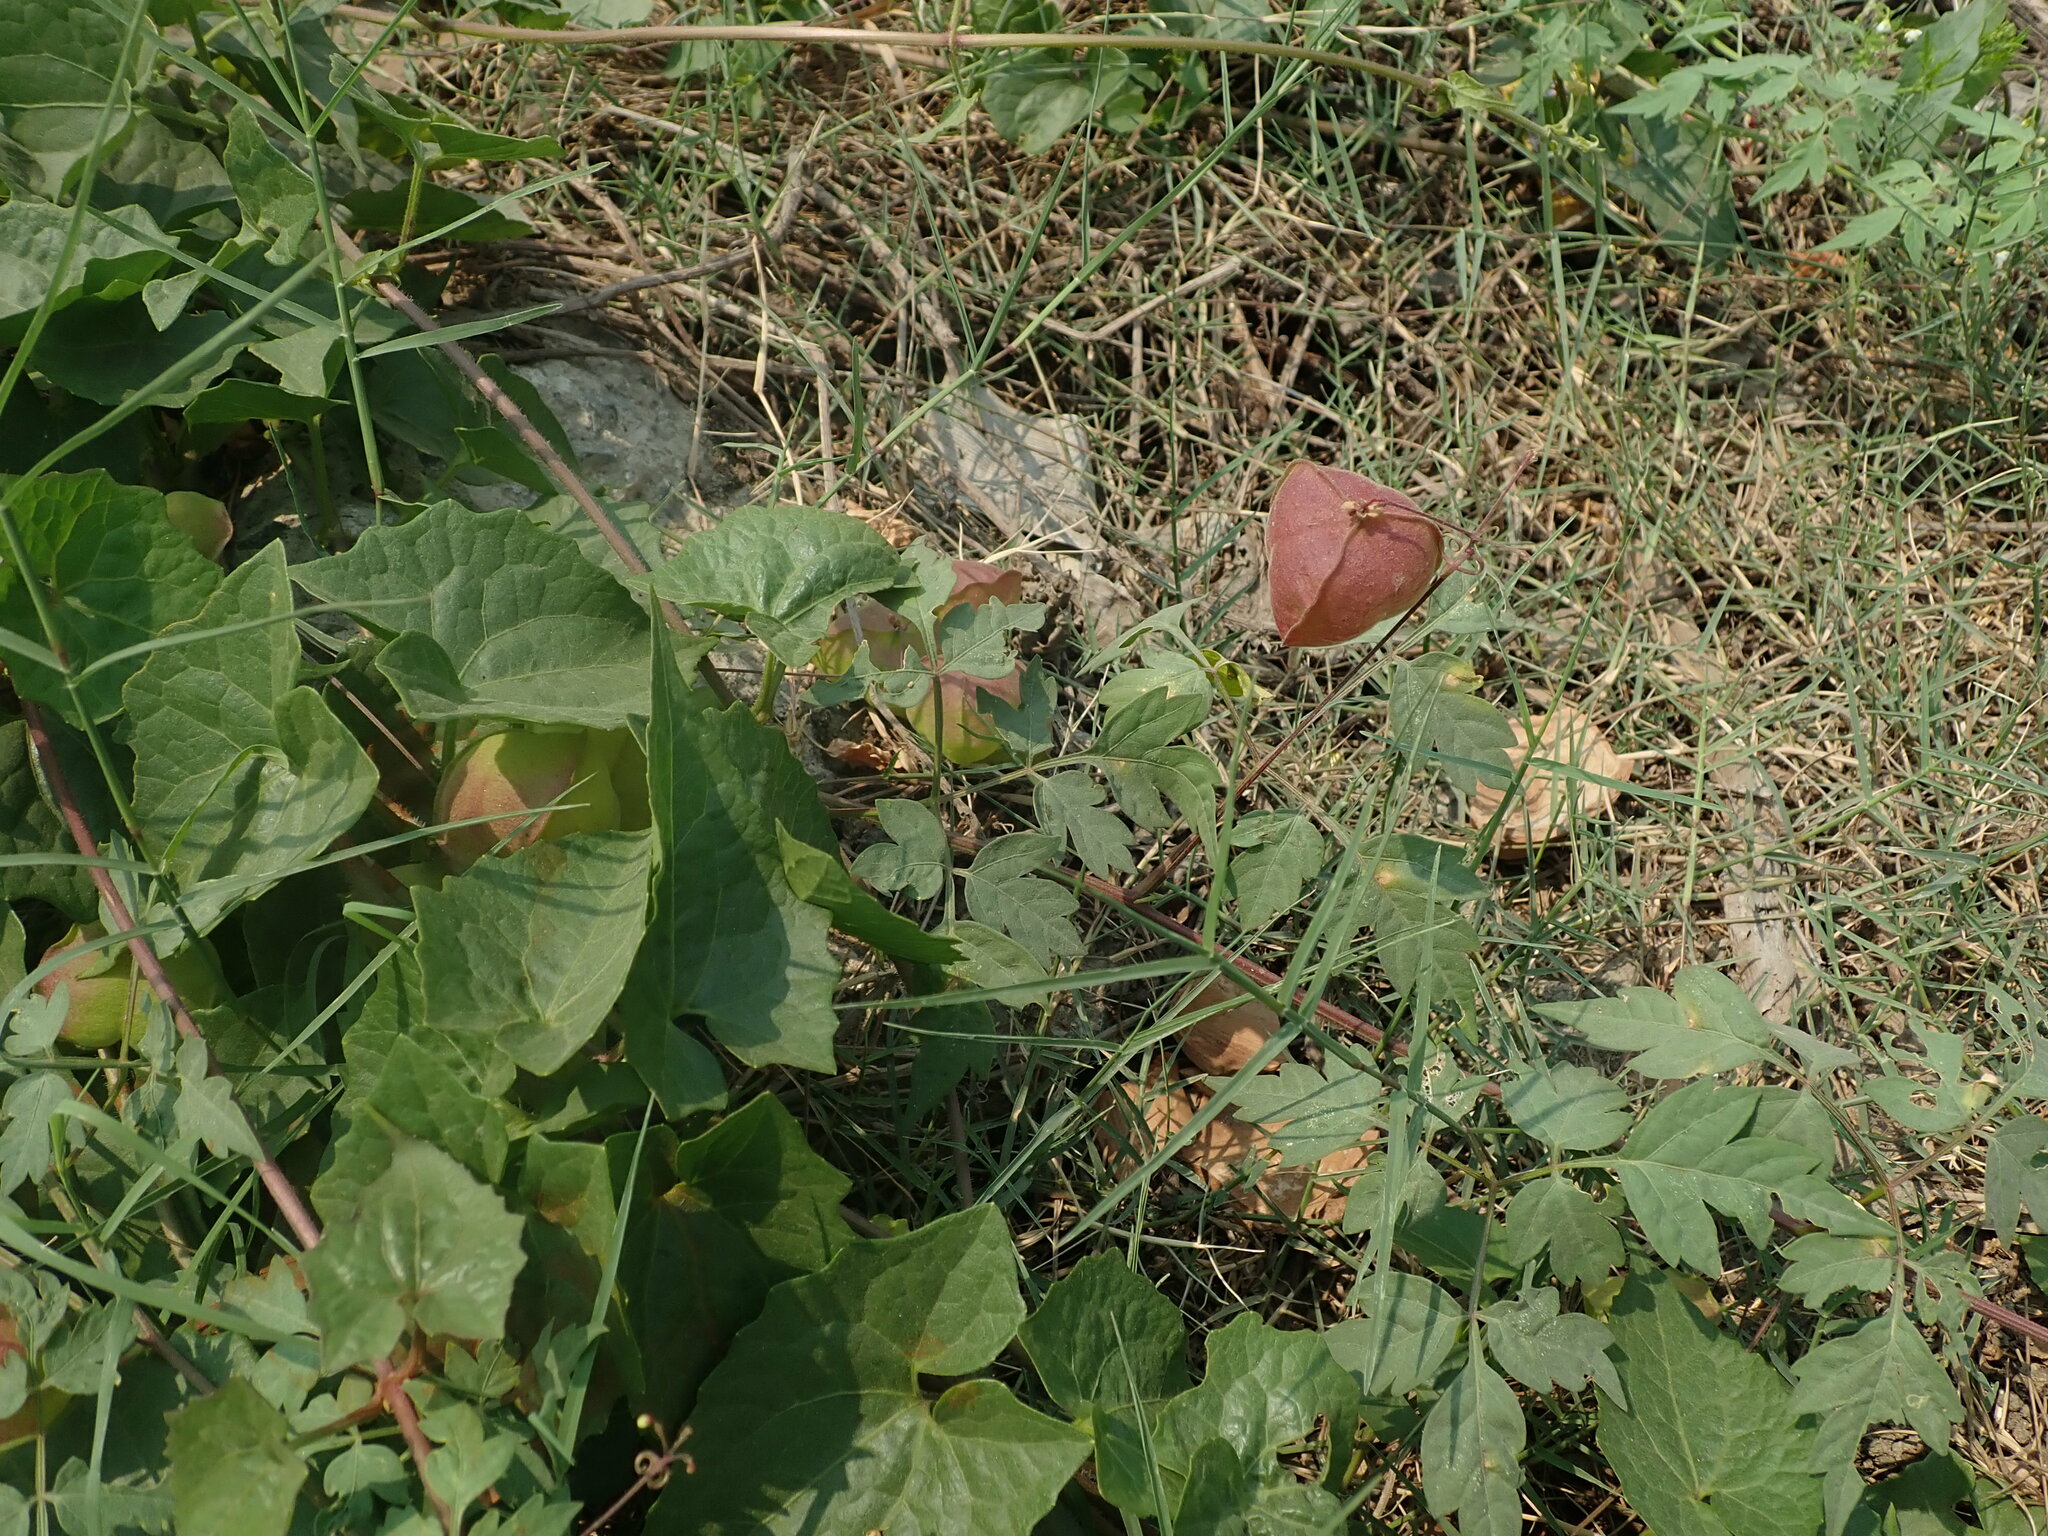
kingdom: Plantae
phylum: Tracheophyta
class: Magnoliopsida
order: Sapindales
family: Sapindaceae
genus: Cardiospermum
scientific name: Cardiospermum halicacabum
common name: Balloon vine
